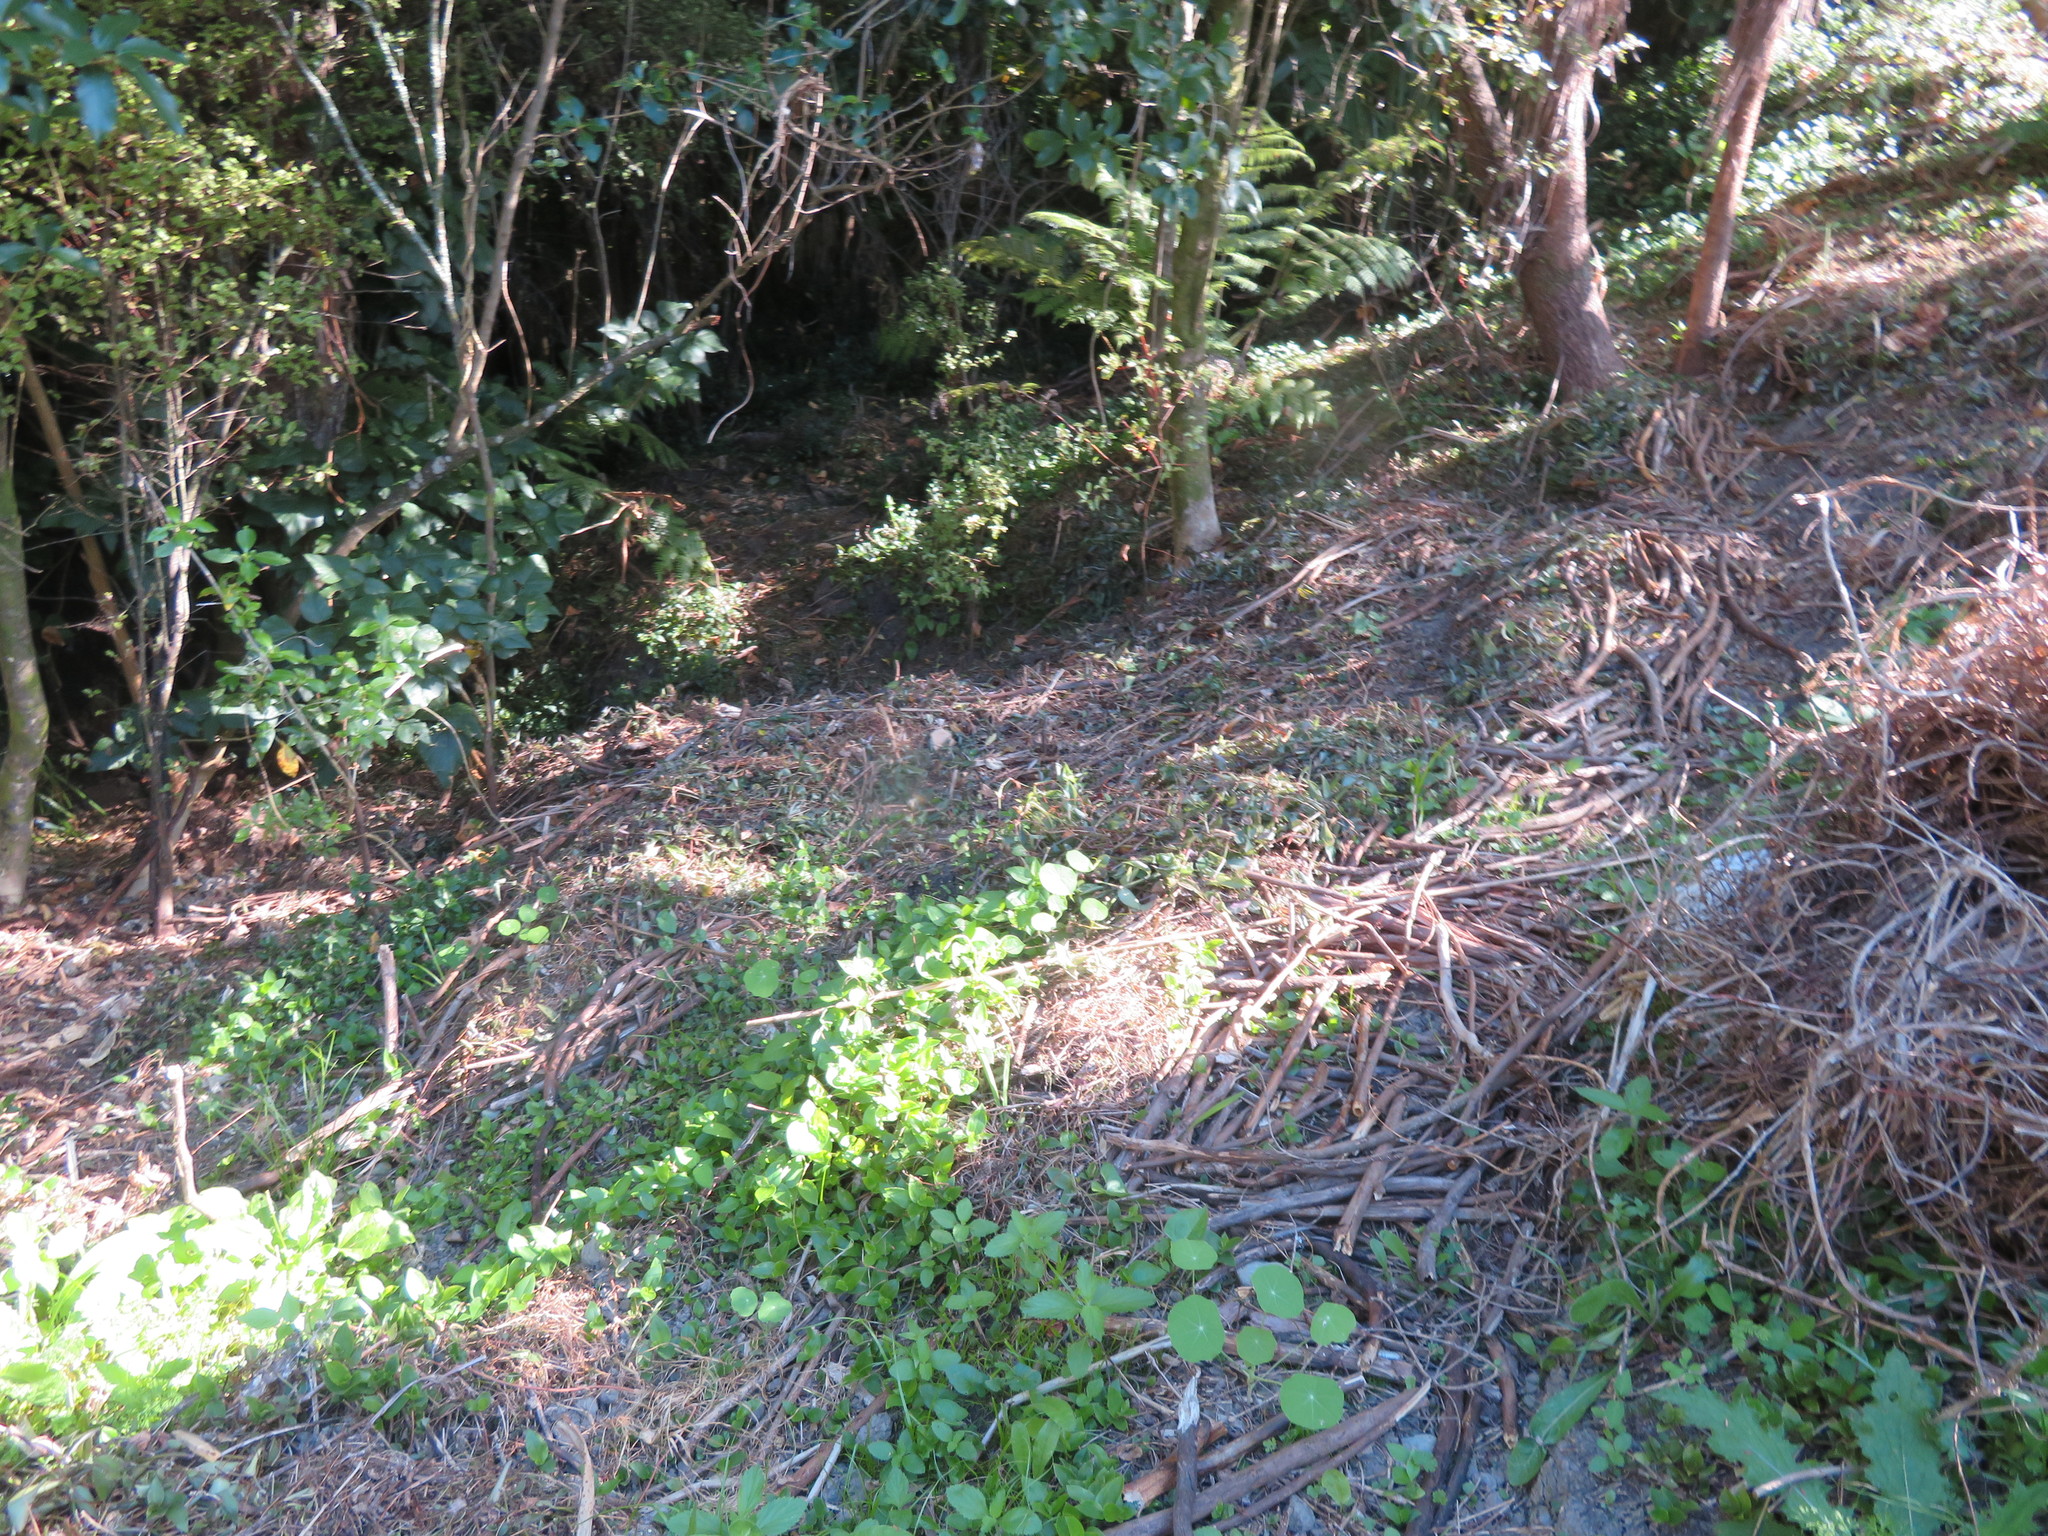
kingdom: Plantae
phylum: Tracheophyta
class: Magnoliopsida
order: Brassicales
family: Tropaeolaceae
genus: Tropaeolum
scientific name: Tropaeolum majus
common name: Nasturtium
